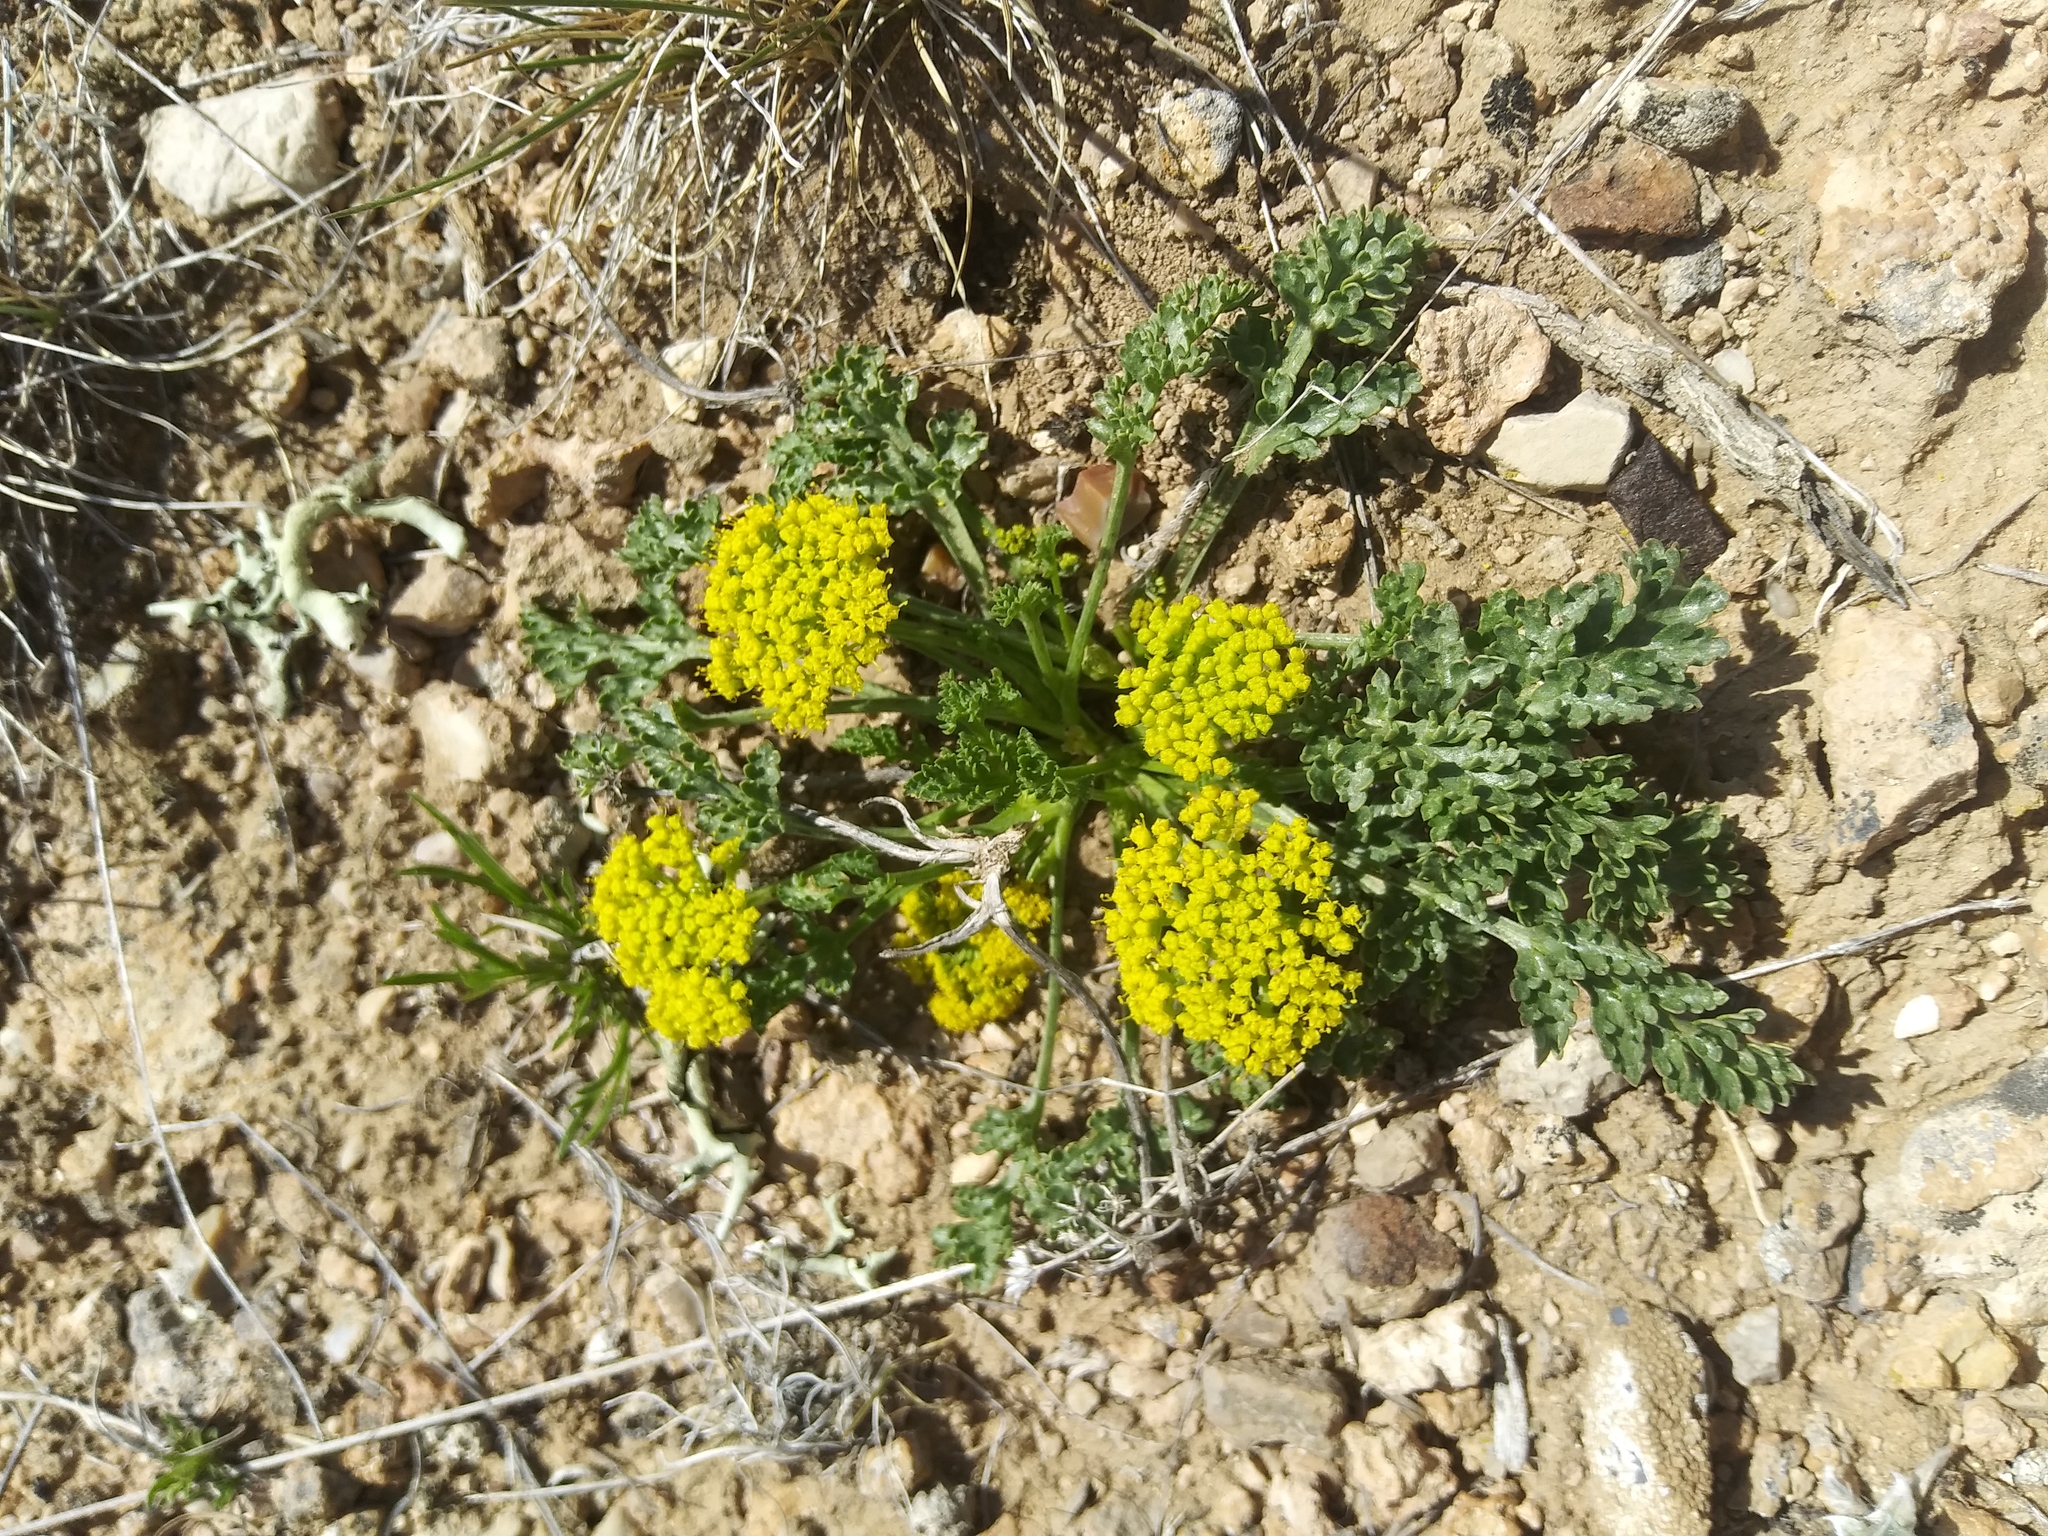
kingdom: Plantae
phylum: Tracheophyta
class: Magnoliopsida
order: Apiales
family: Apiaceae
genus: Musineon
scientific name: Musineon divaricatum
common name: Plains musineon
